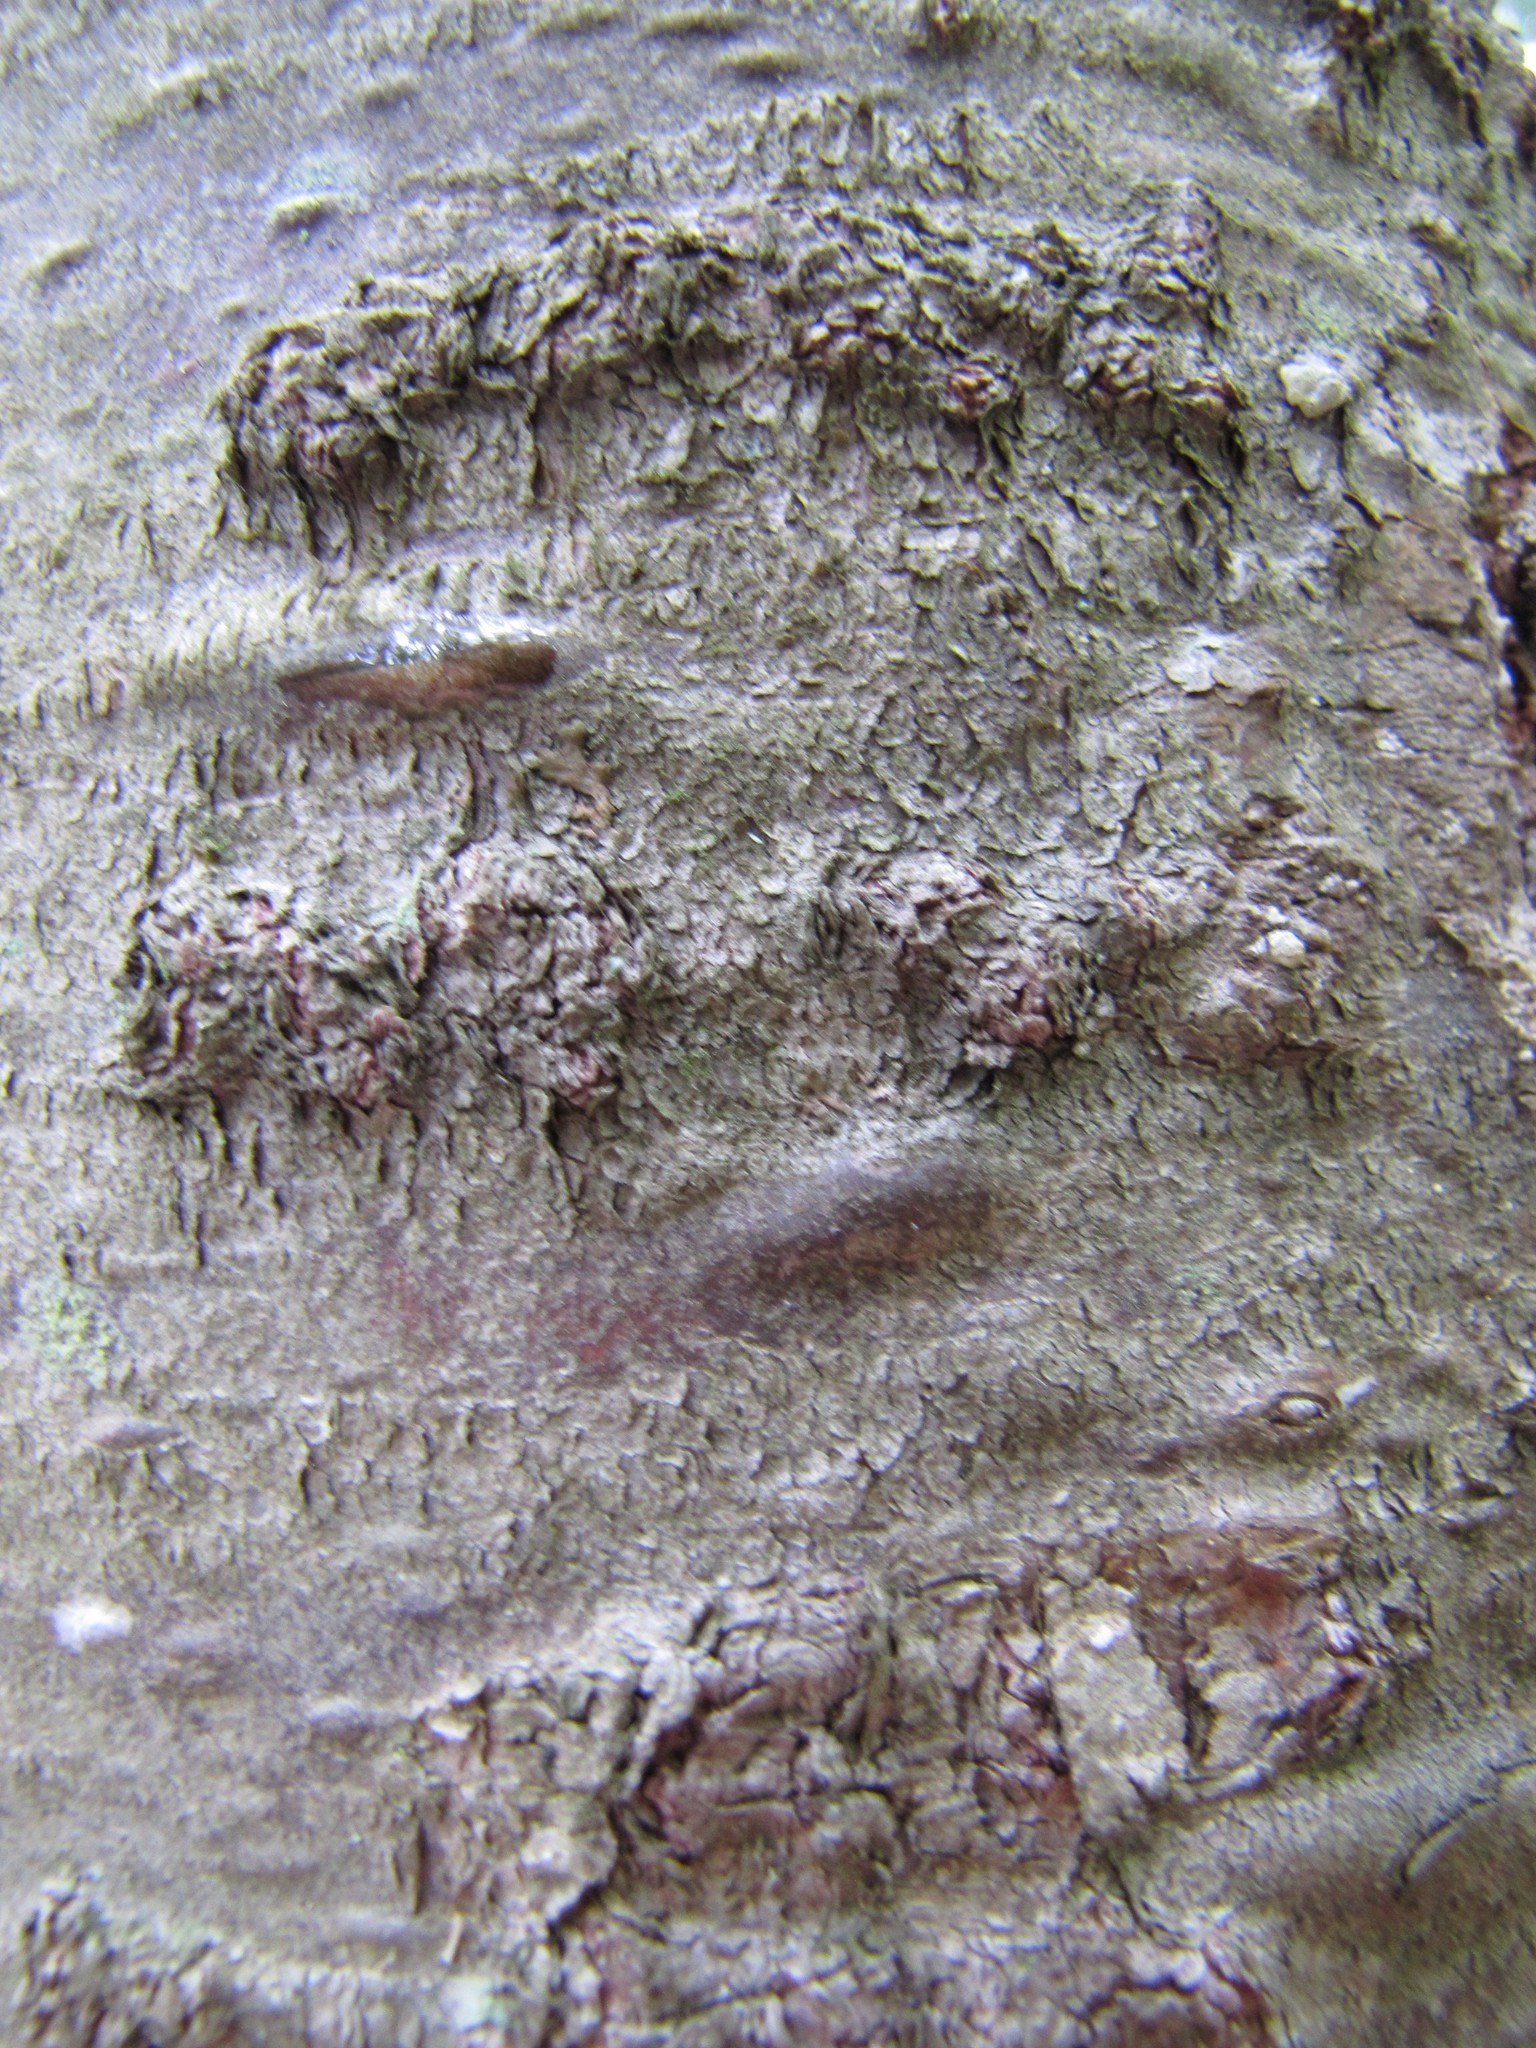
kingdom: Plantae
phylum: Tracheophyta
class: Pinopsida
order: Pinales
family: Pinaceae
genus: Abies
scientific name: Abies balsamea
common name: Balsam fir
